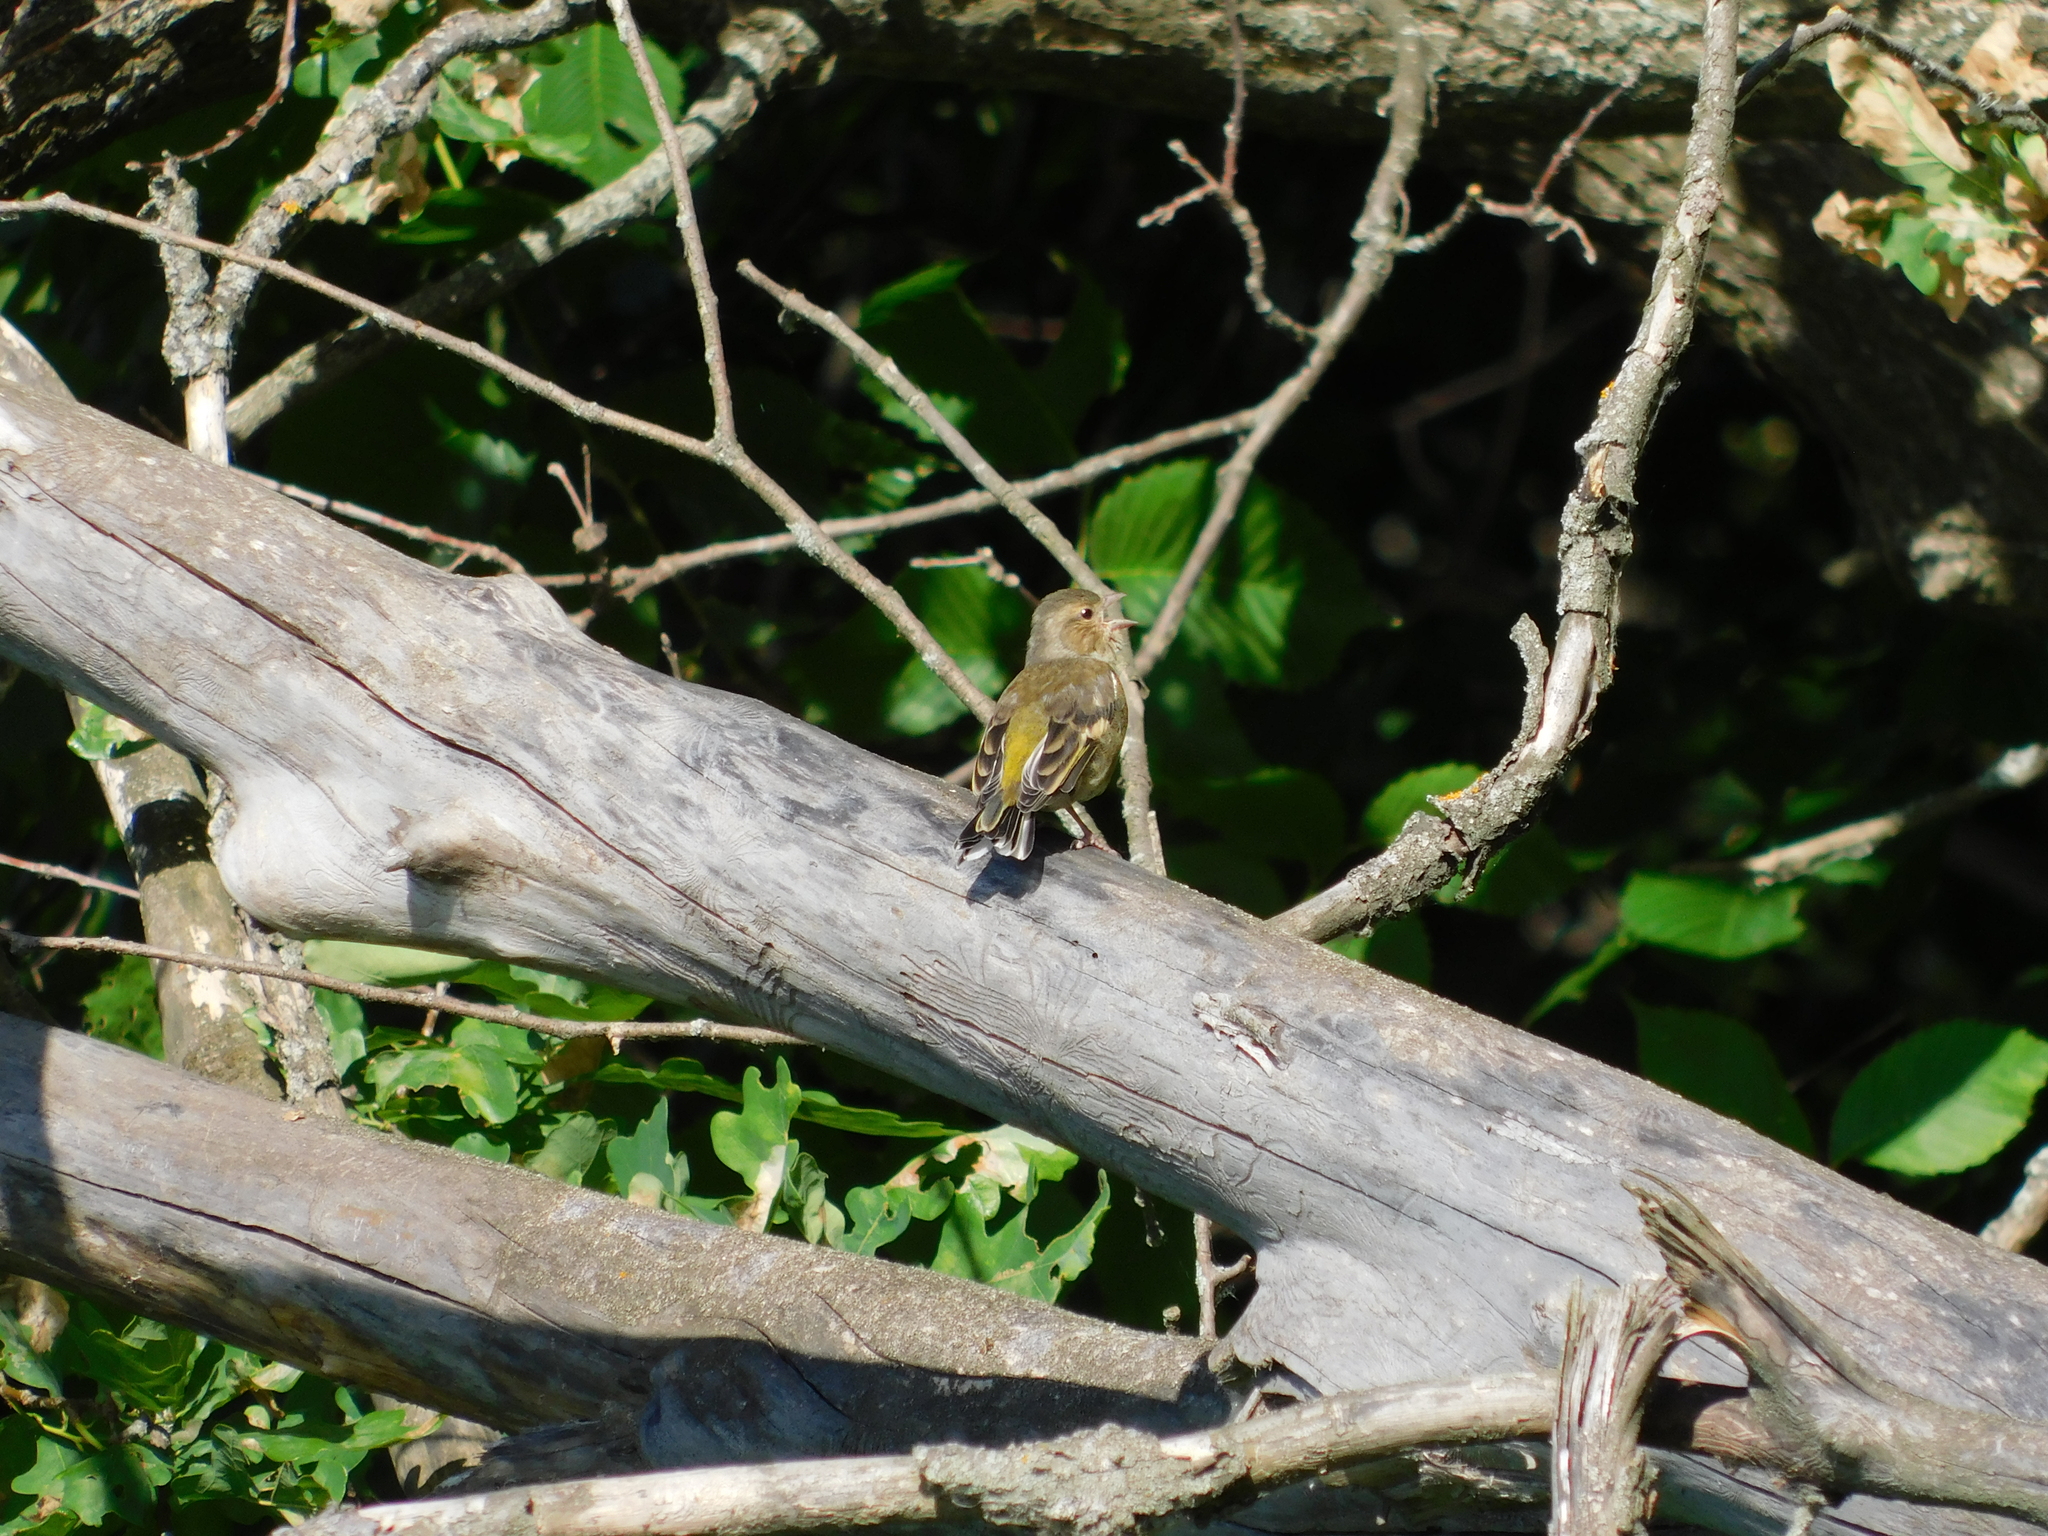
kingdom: Animalia
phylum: Chordata
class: Aves
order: Passeriformes
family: Fringillidae
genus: Fringilla
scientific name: Fringilla coelebs
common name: Common chaffinch
